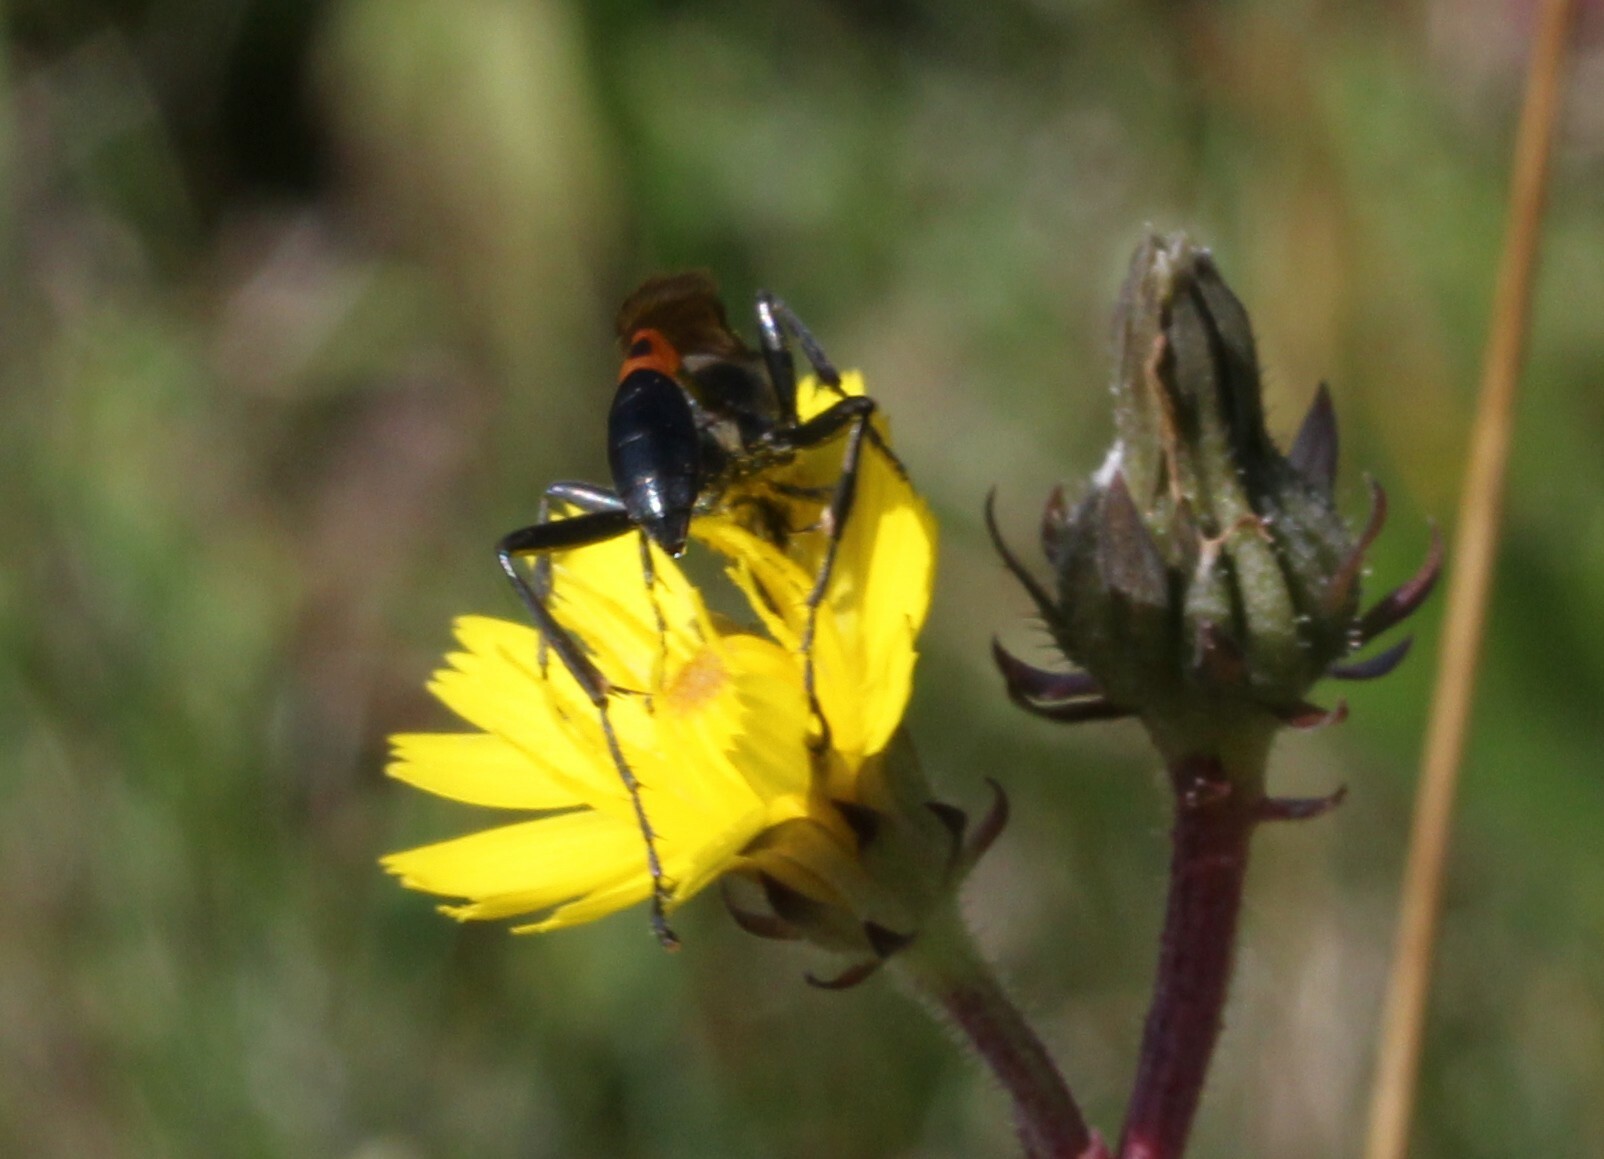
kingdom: Animalia
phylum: Arthropoda
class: Insecta
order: Hymenoptera
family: Sphecidae
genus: Ammophila
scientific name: Ammophila sabulosa
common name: Red banded sand wasp
